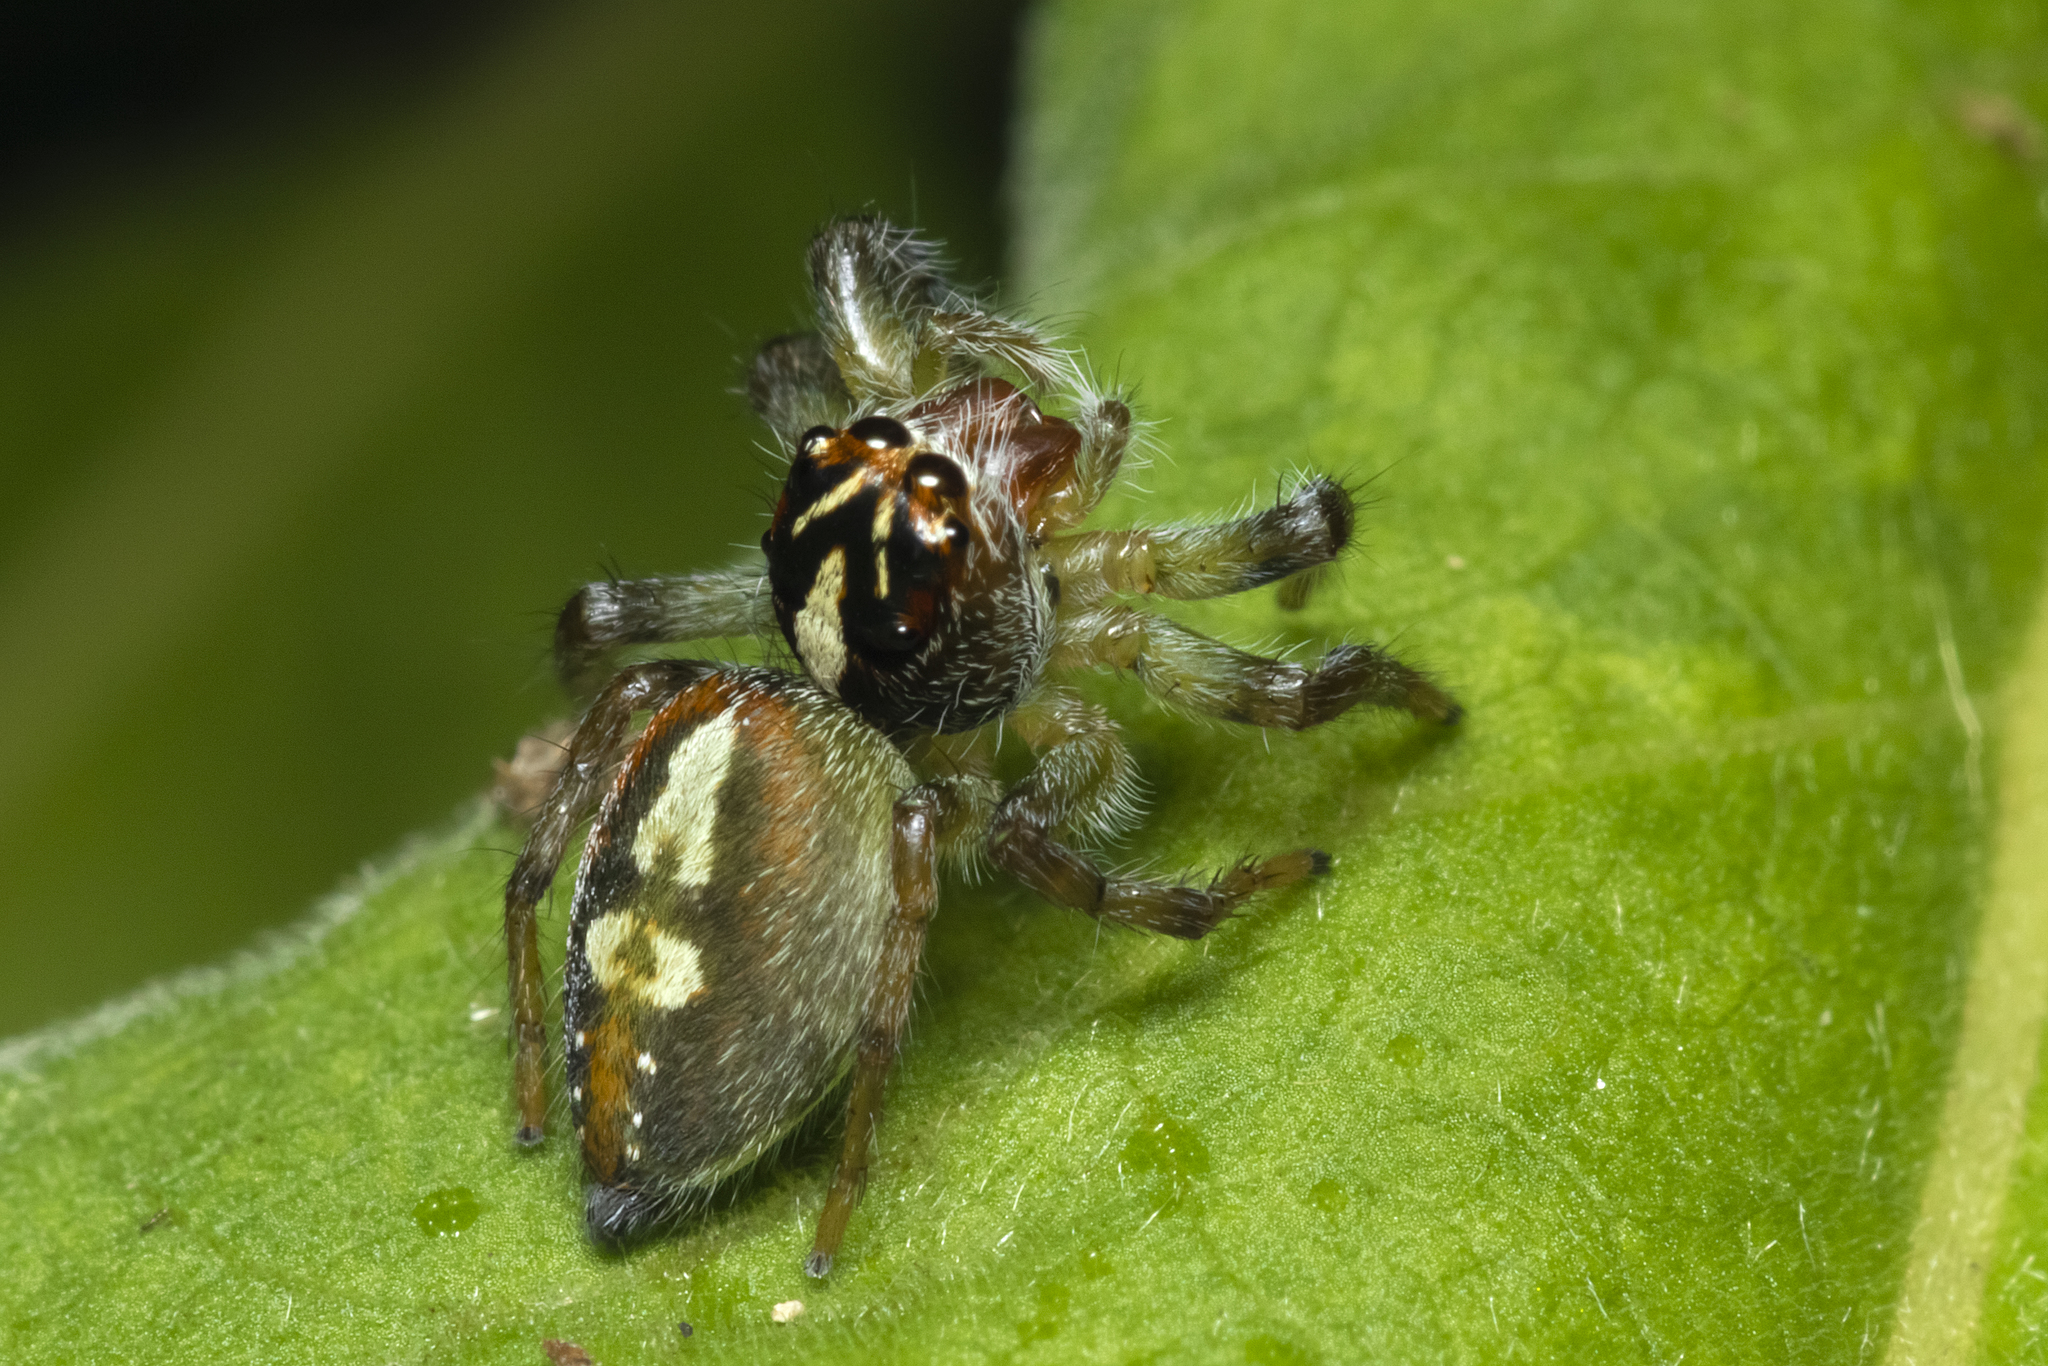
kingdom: Animalia
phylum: Arthropoda
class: Arachnida
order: Araneae
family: Salticidae
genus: Frigga
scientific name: Frigga quintensis
